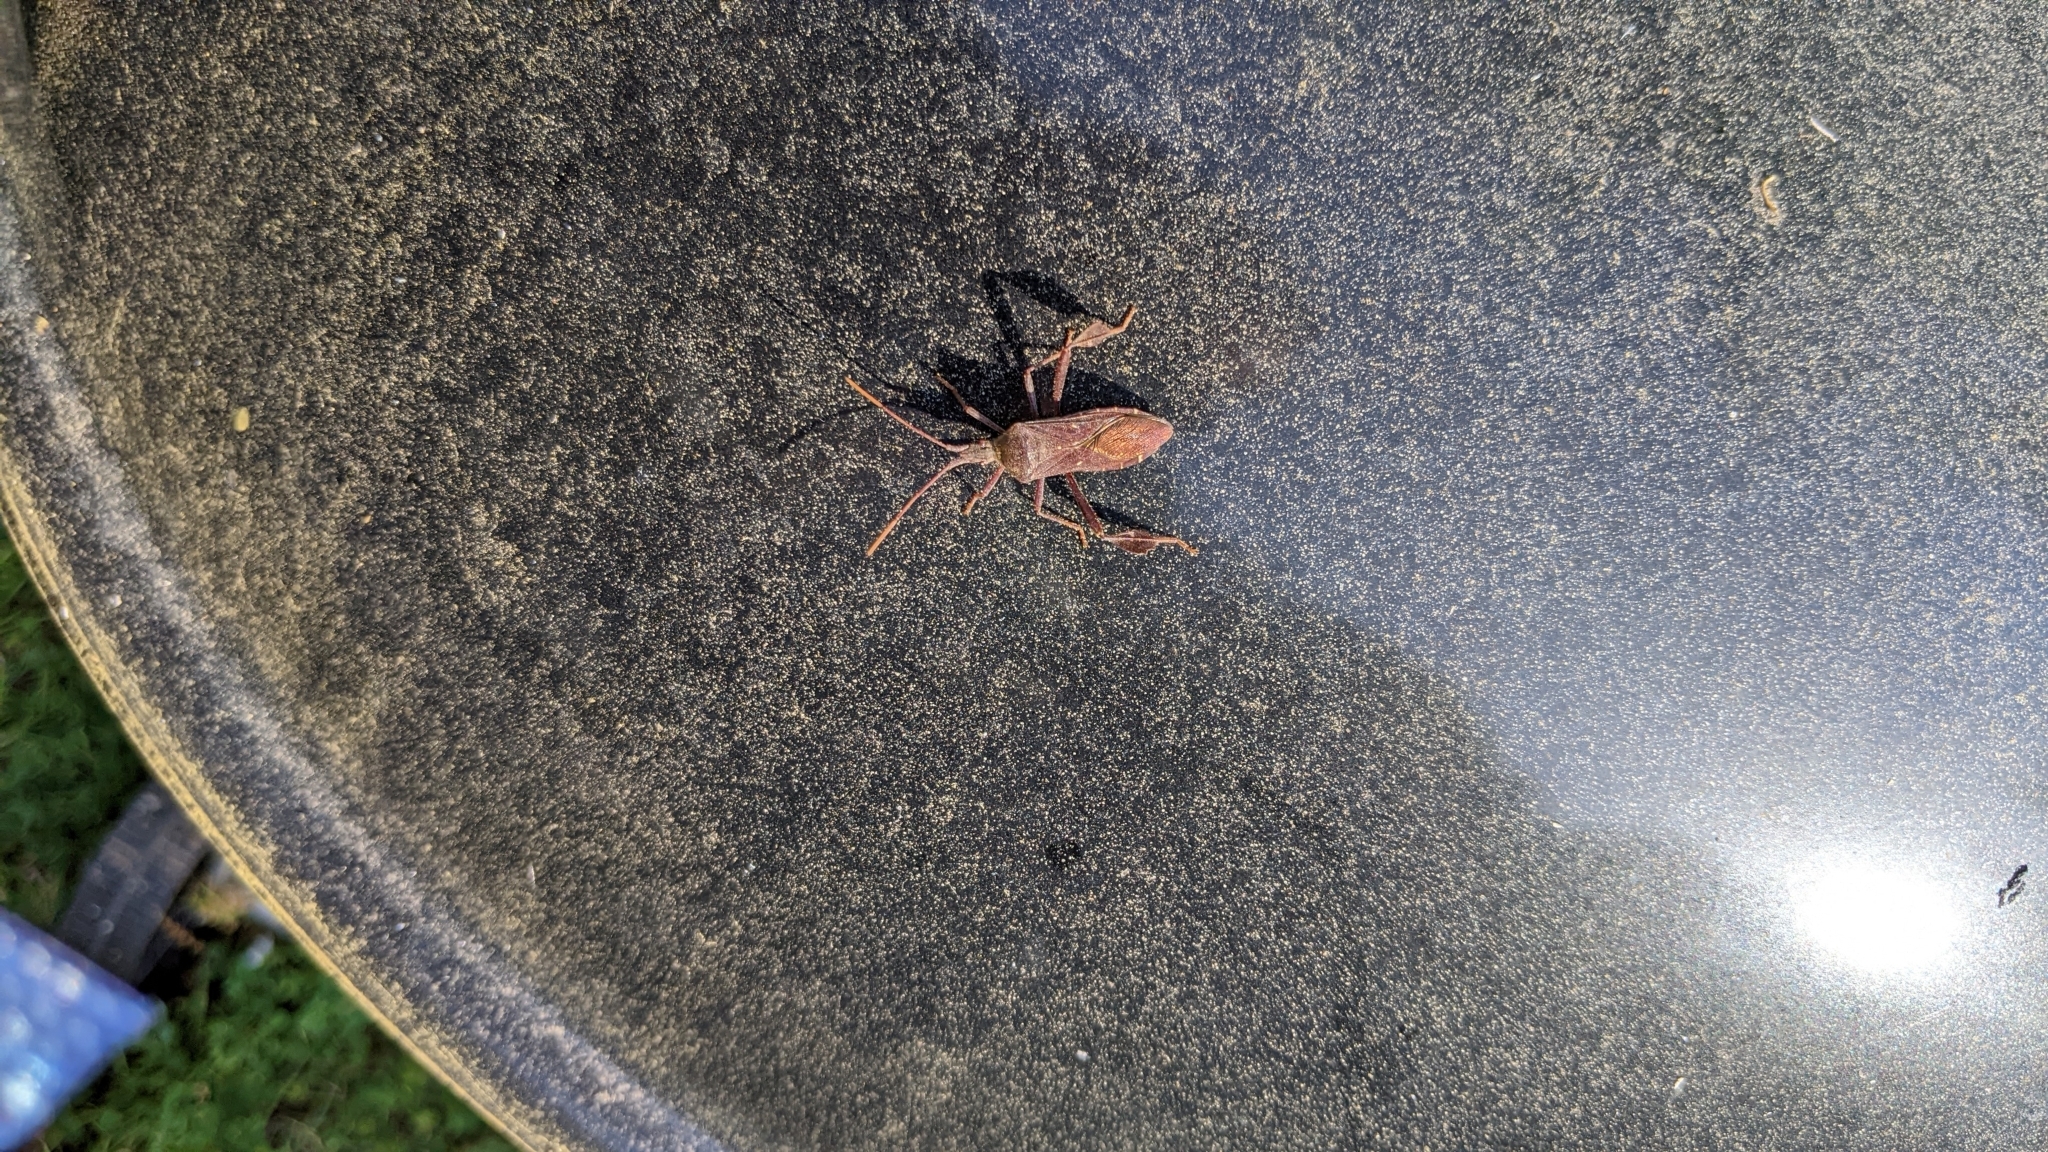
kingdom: Animalia
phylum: Arthropoda
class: Insecta
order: Hemiptera
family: Coreidae
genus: Leptoglossus
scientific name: Leptoglossus oppositus
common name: Northern leaf-footed bug
